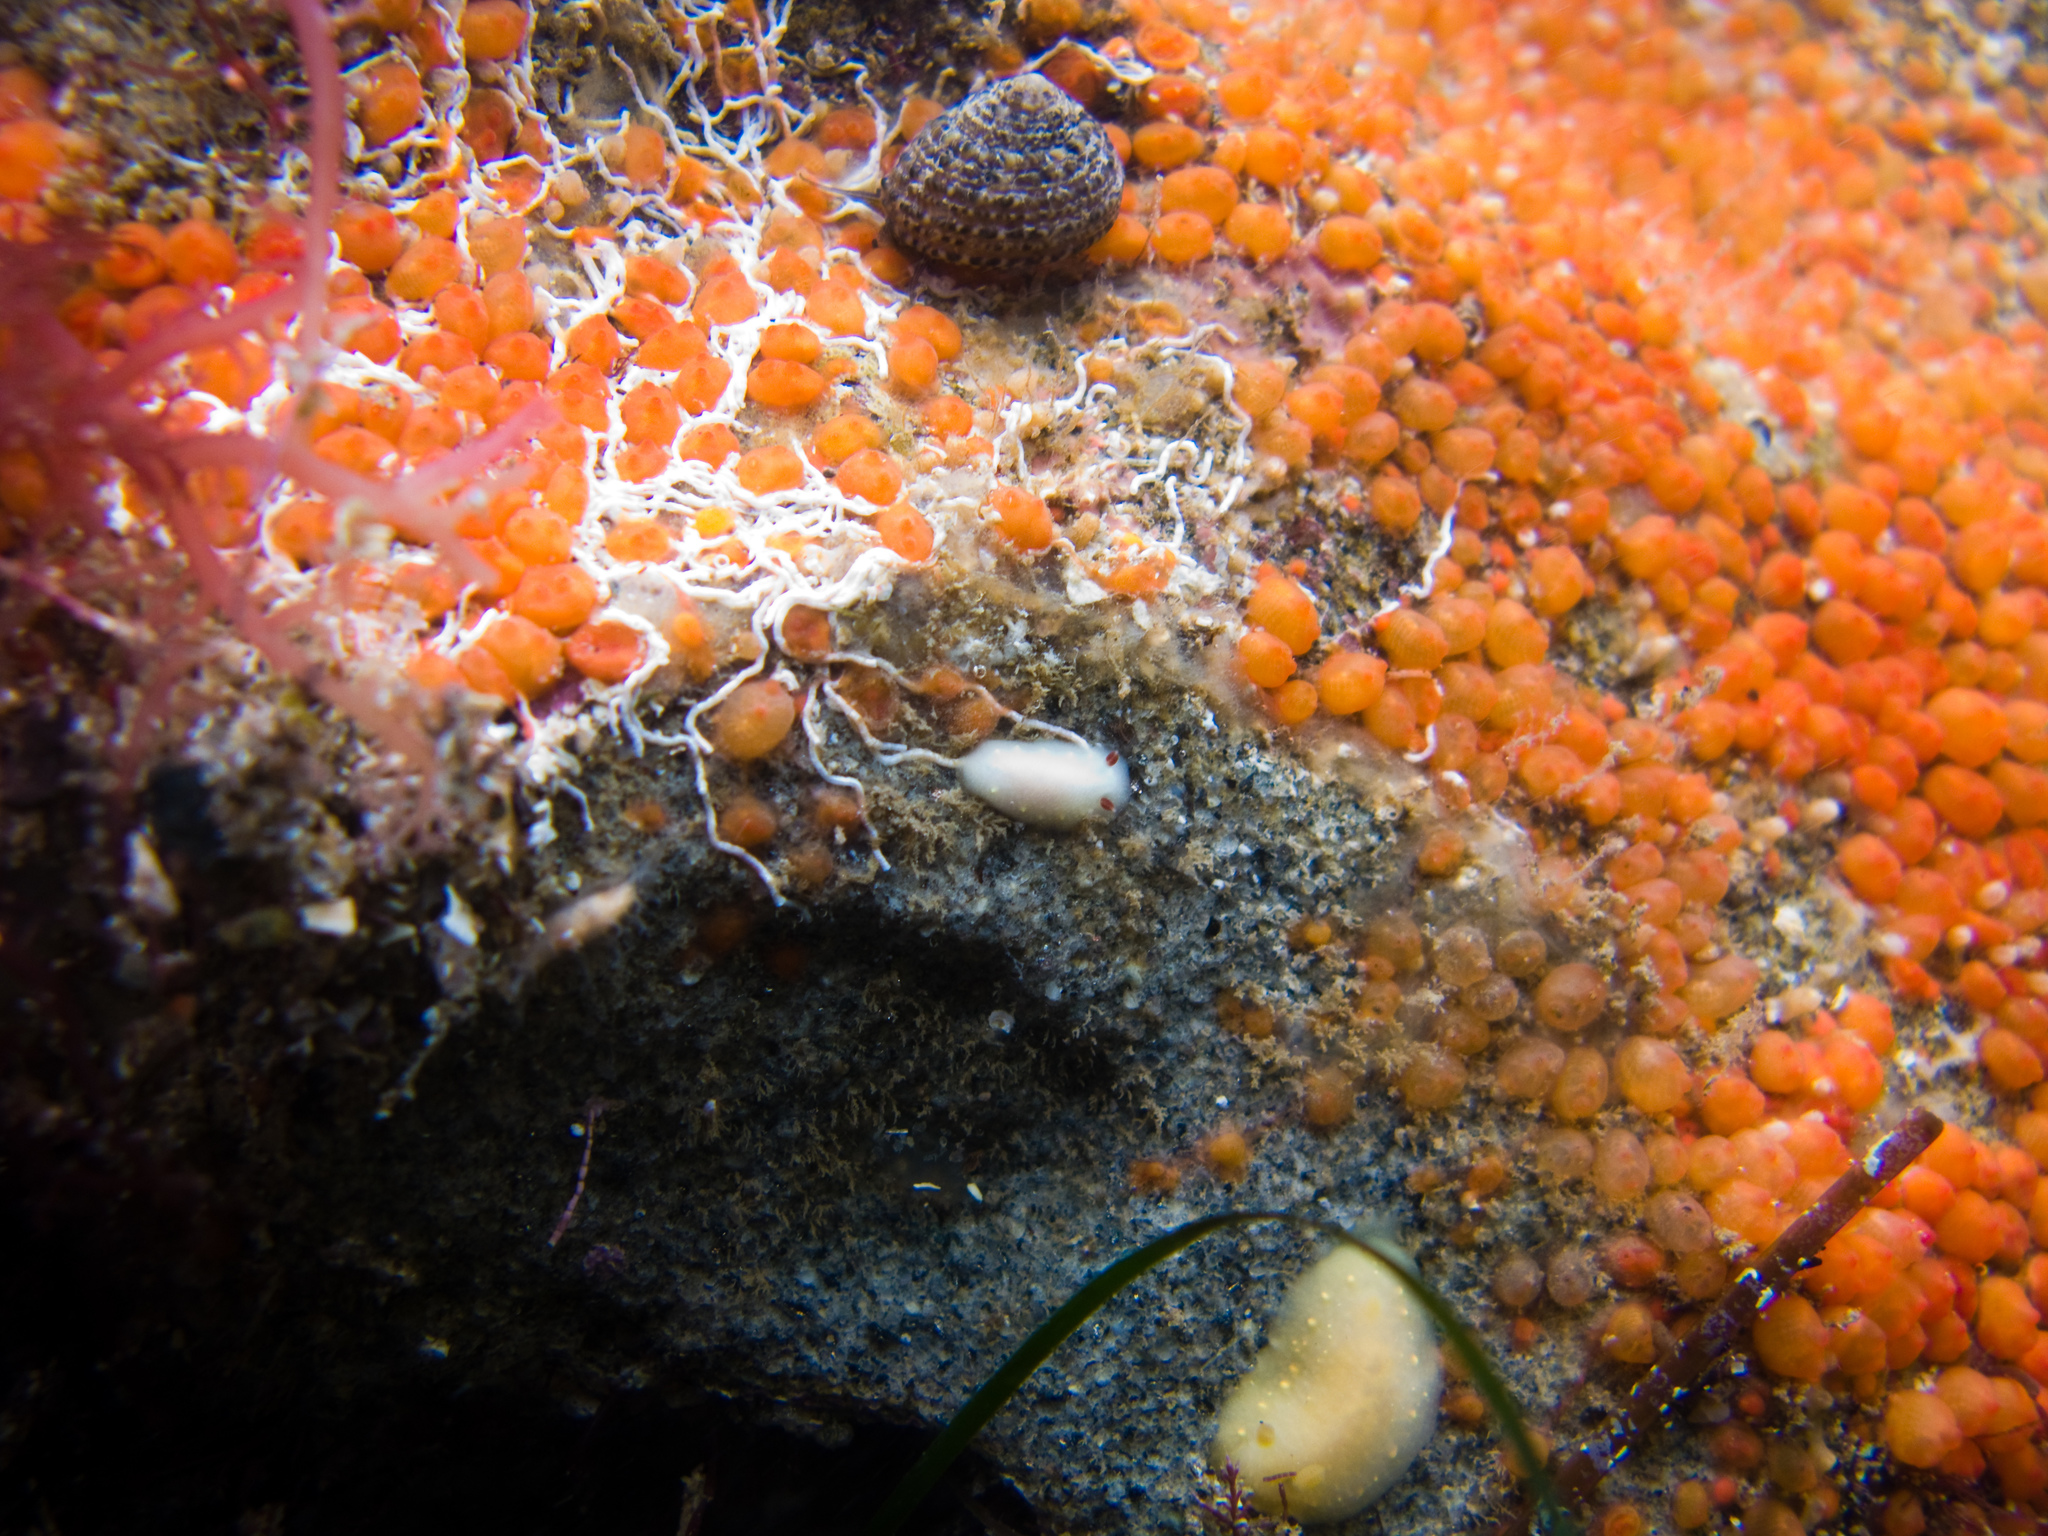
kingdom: Animalia
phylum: Mollusca
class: Gastropoda
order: Nudibranchia
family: Cadlinidae
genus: Cadlina
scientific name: Cadlina modesta
